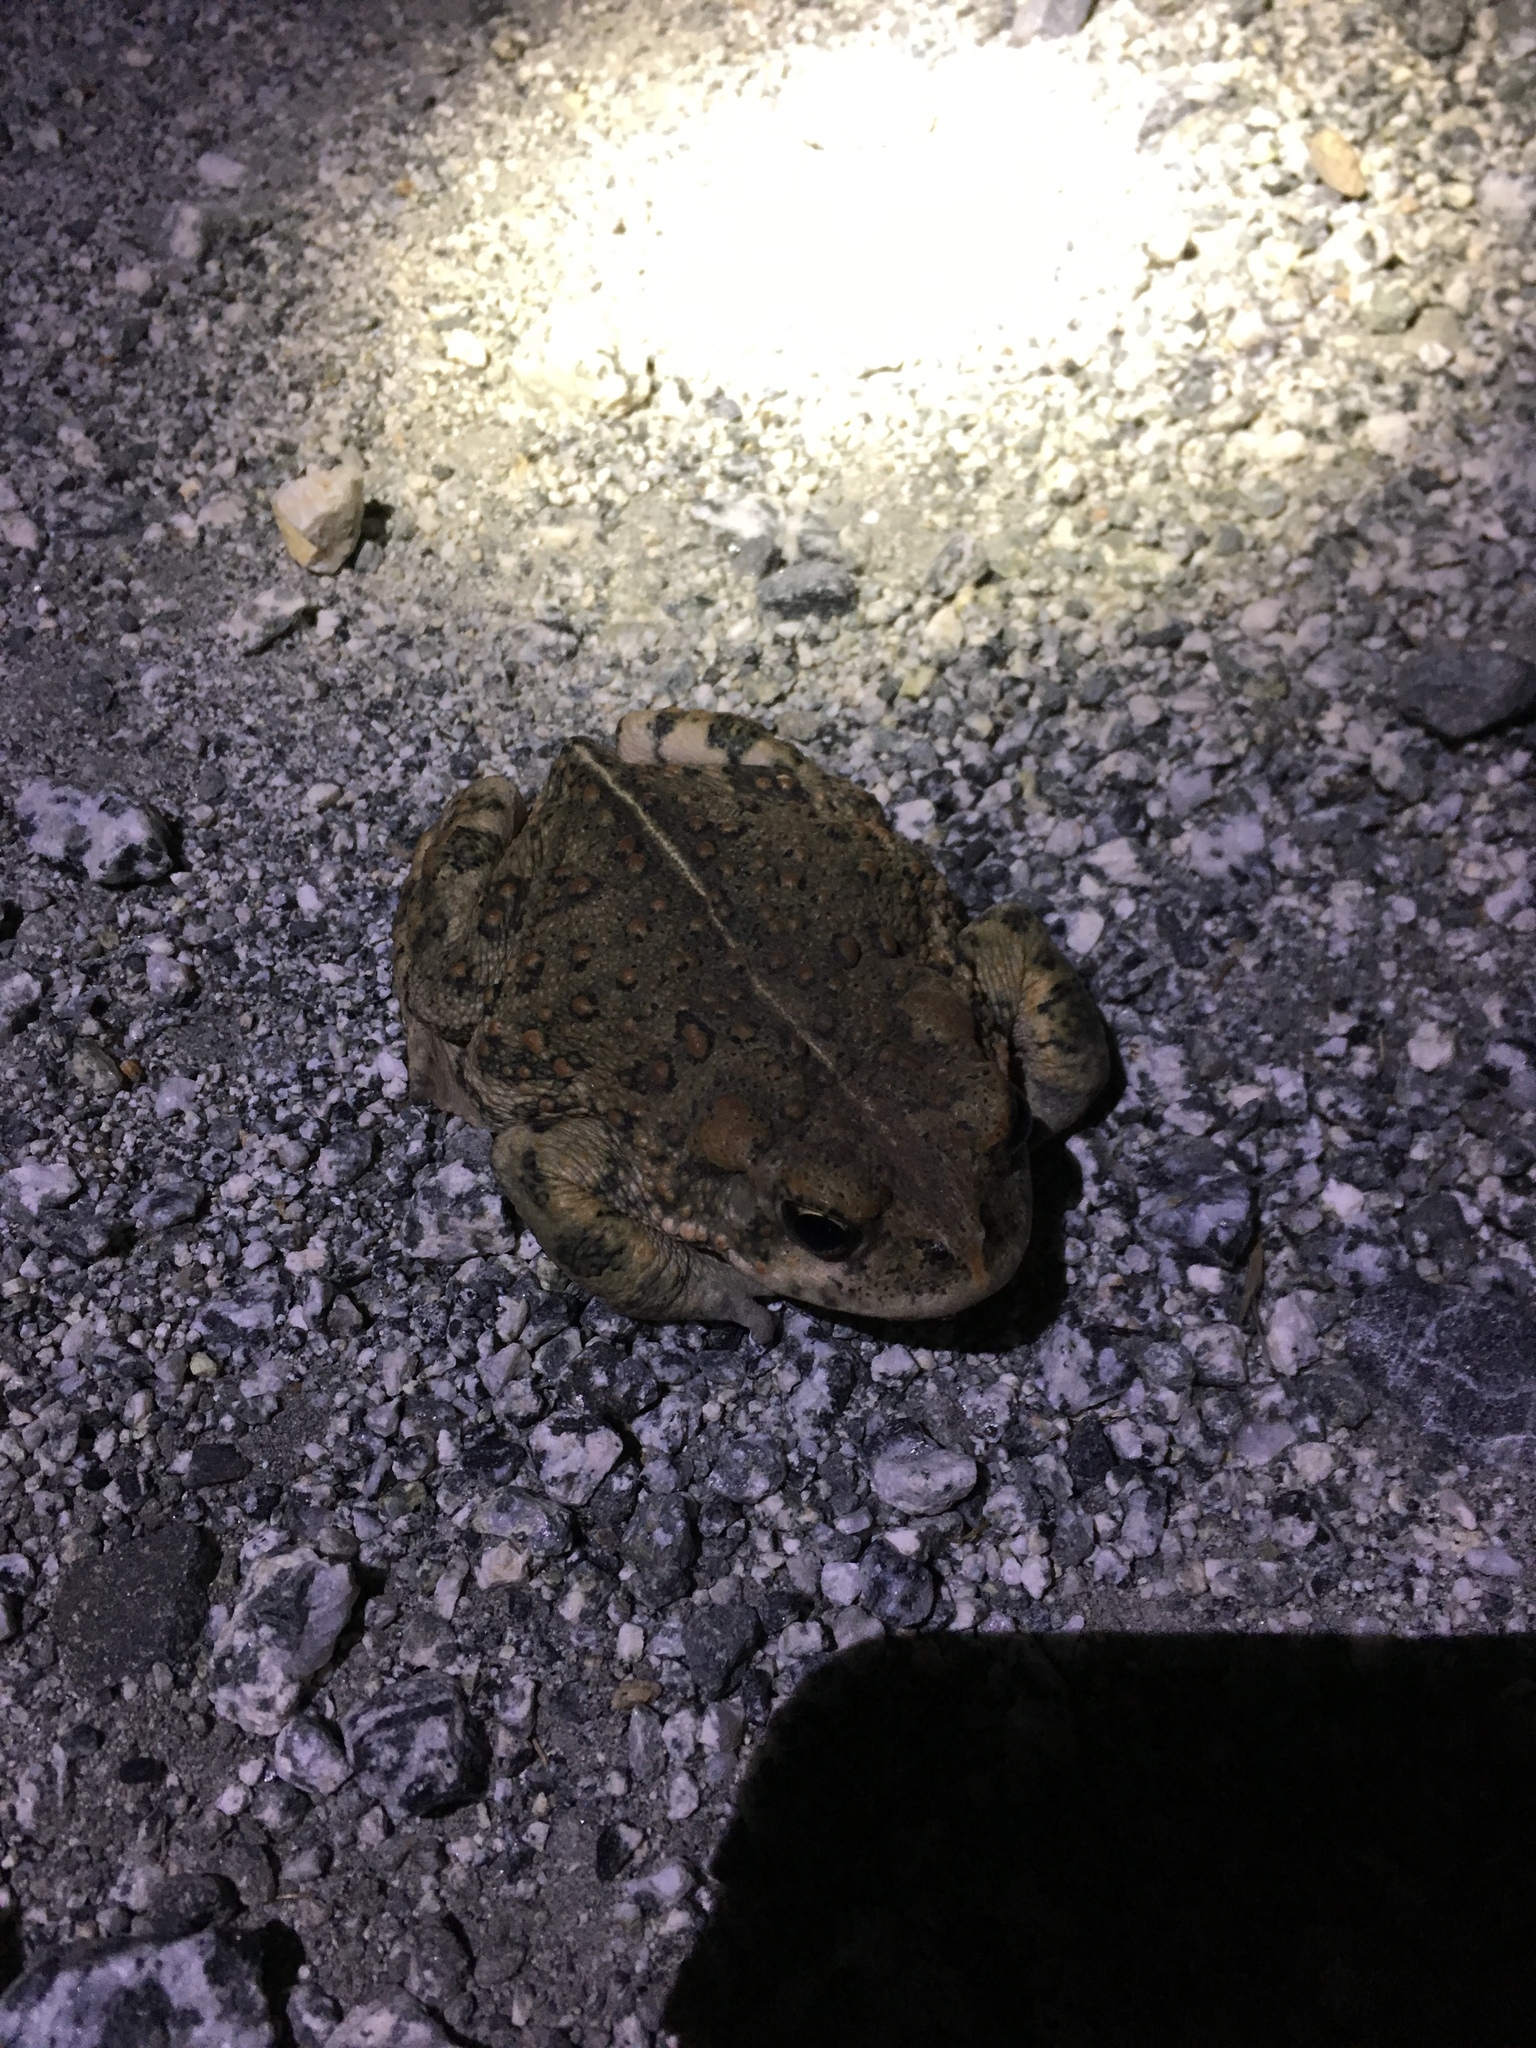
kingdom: Animalia
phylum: Chordata
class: Amphibia
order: Anura
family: Bufonidae
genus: Anaxyrus
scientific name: Anaxyrus boreas
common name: Western toad
